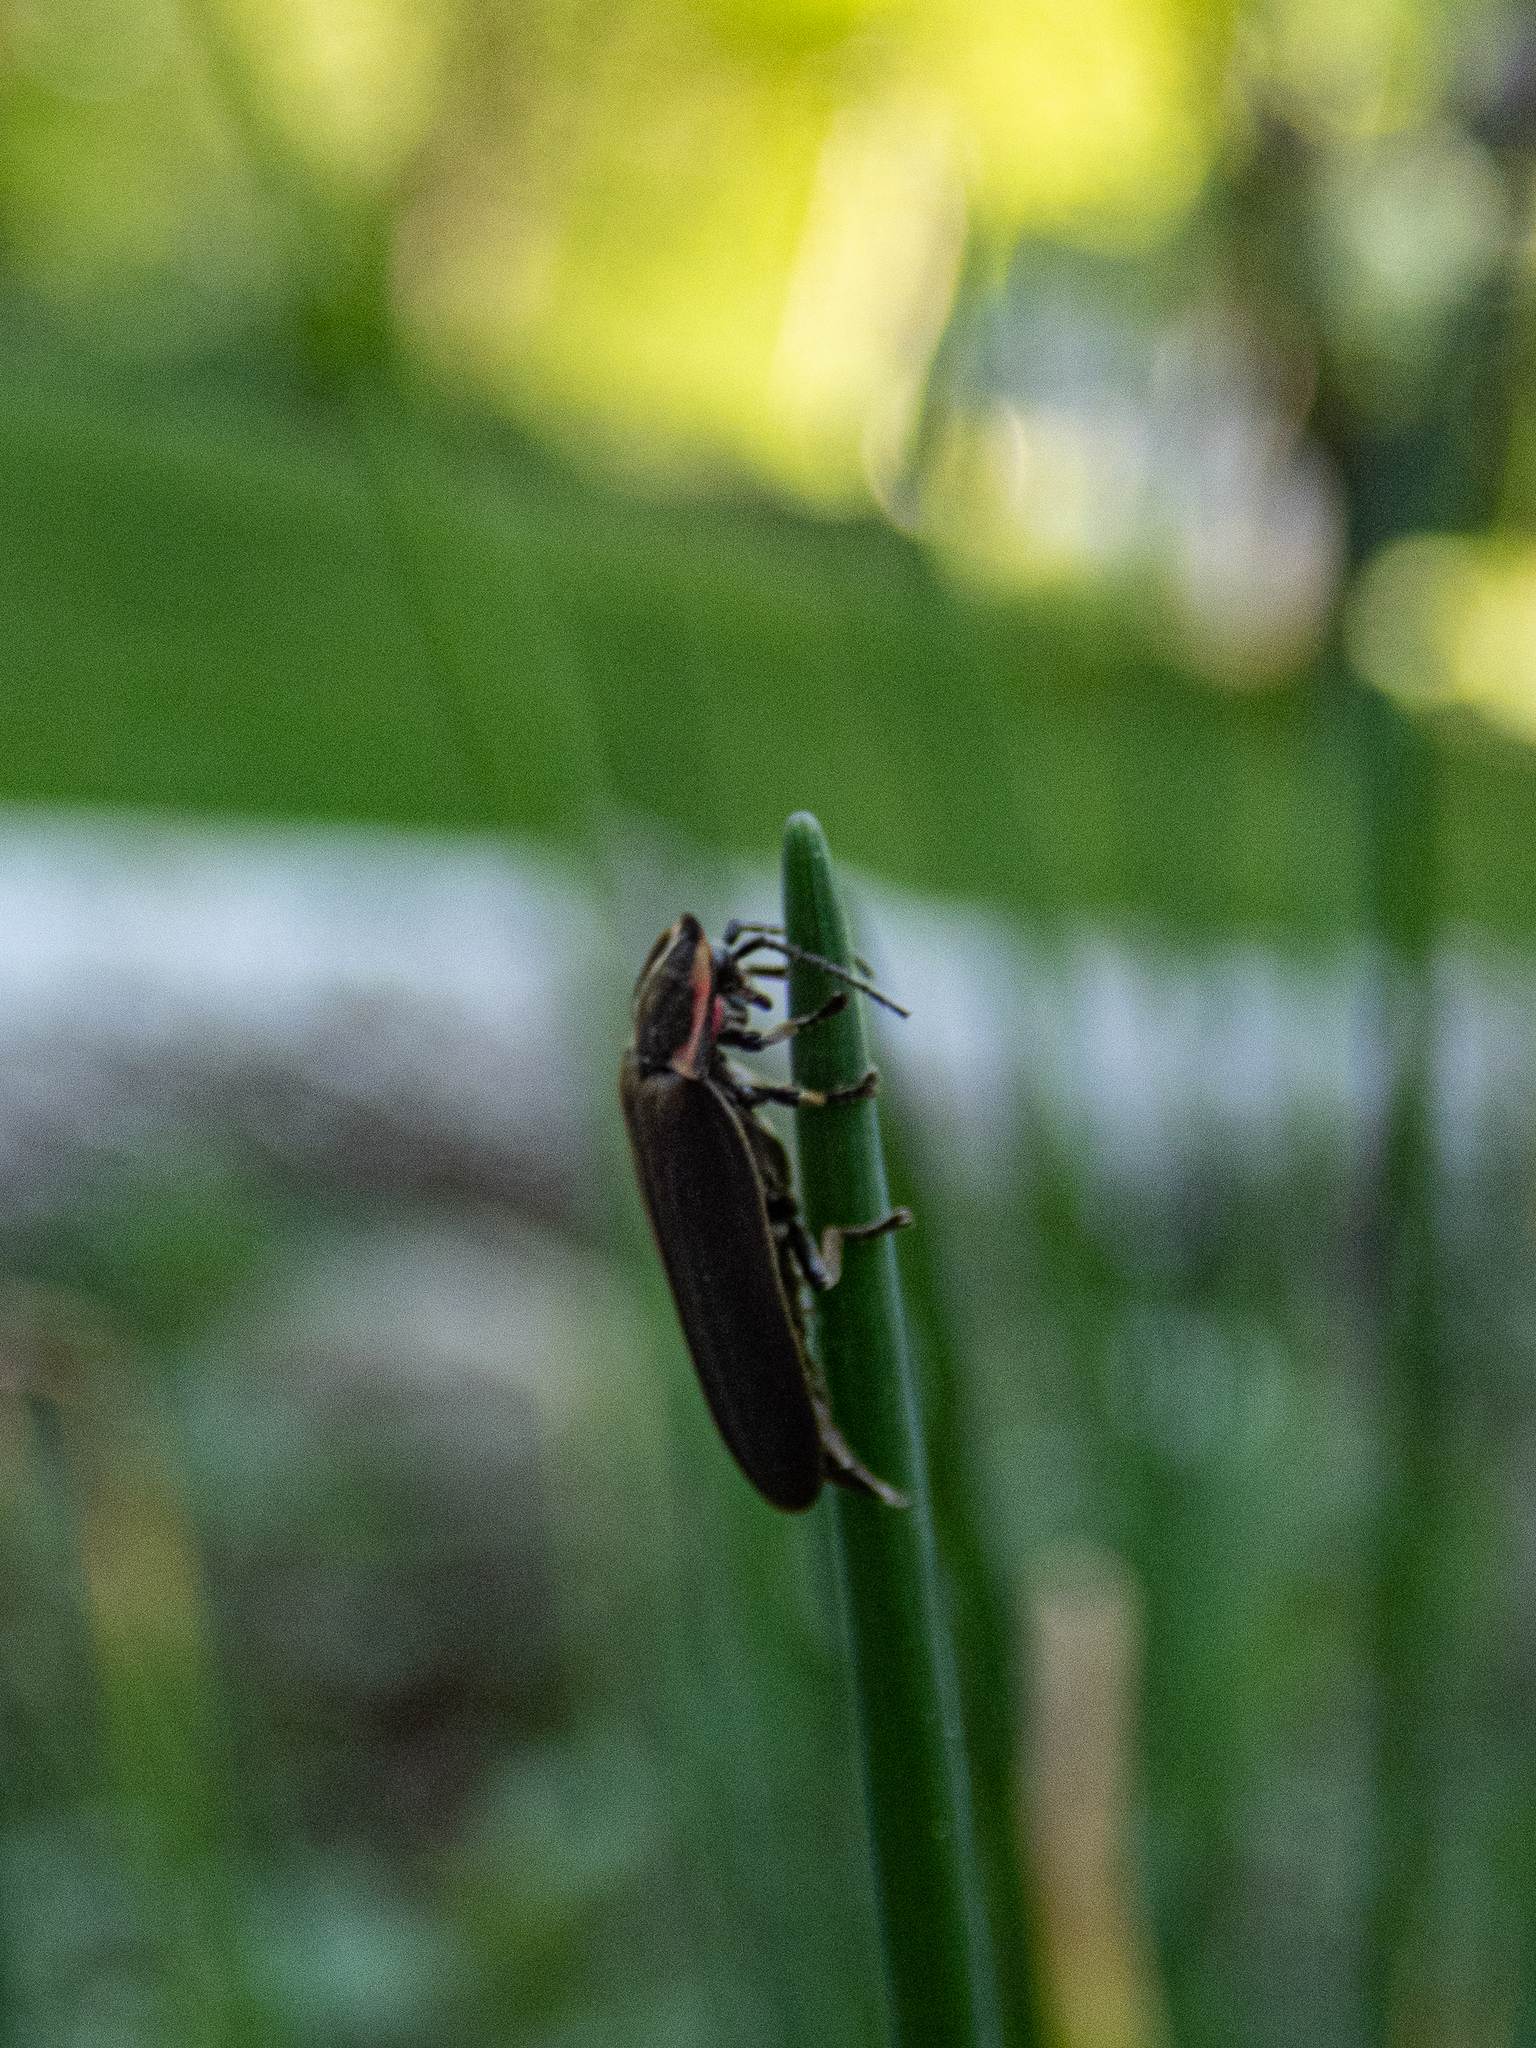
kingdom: Animalia
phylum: Arthropoda
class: Insecta
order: Coleoptera
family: Lampyridae
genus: Photinus
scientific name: Photinus corrusca
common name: Winter firefly
